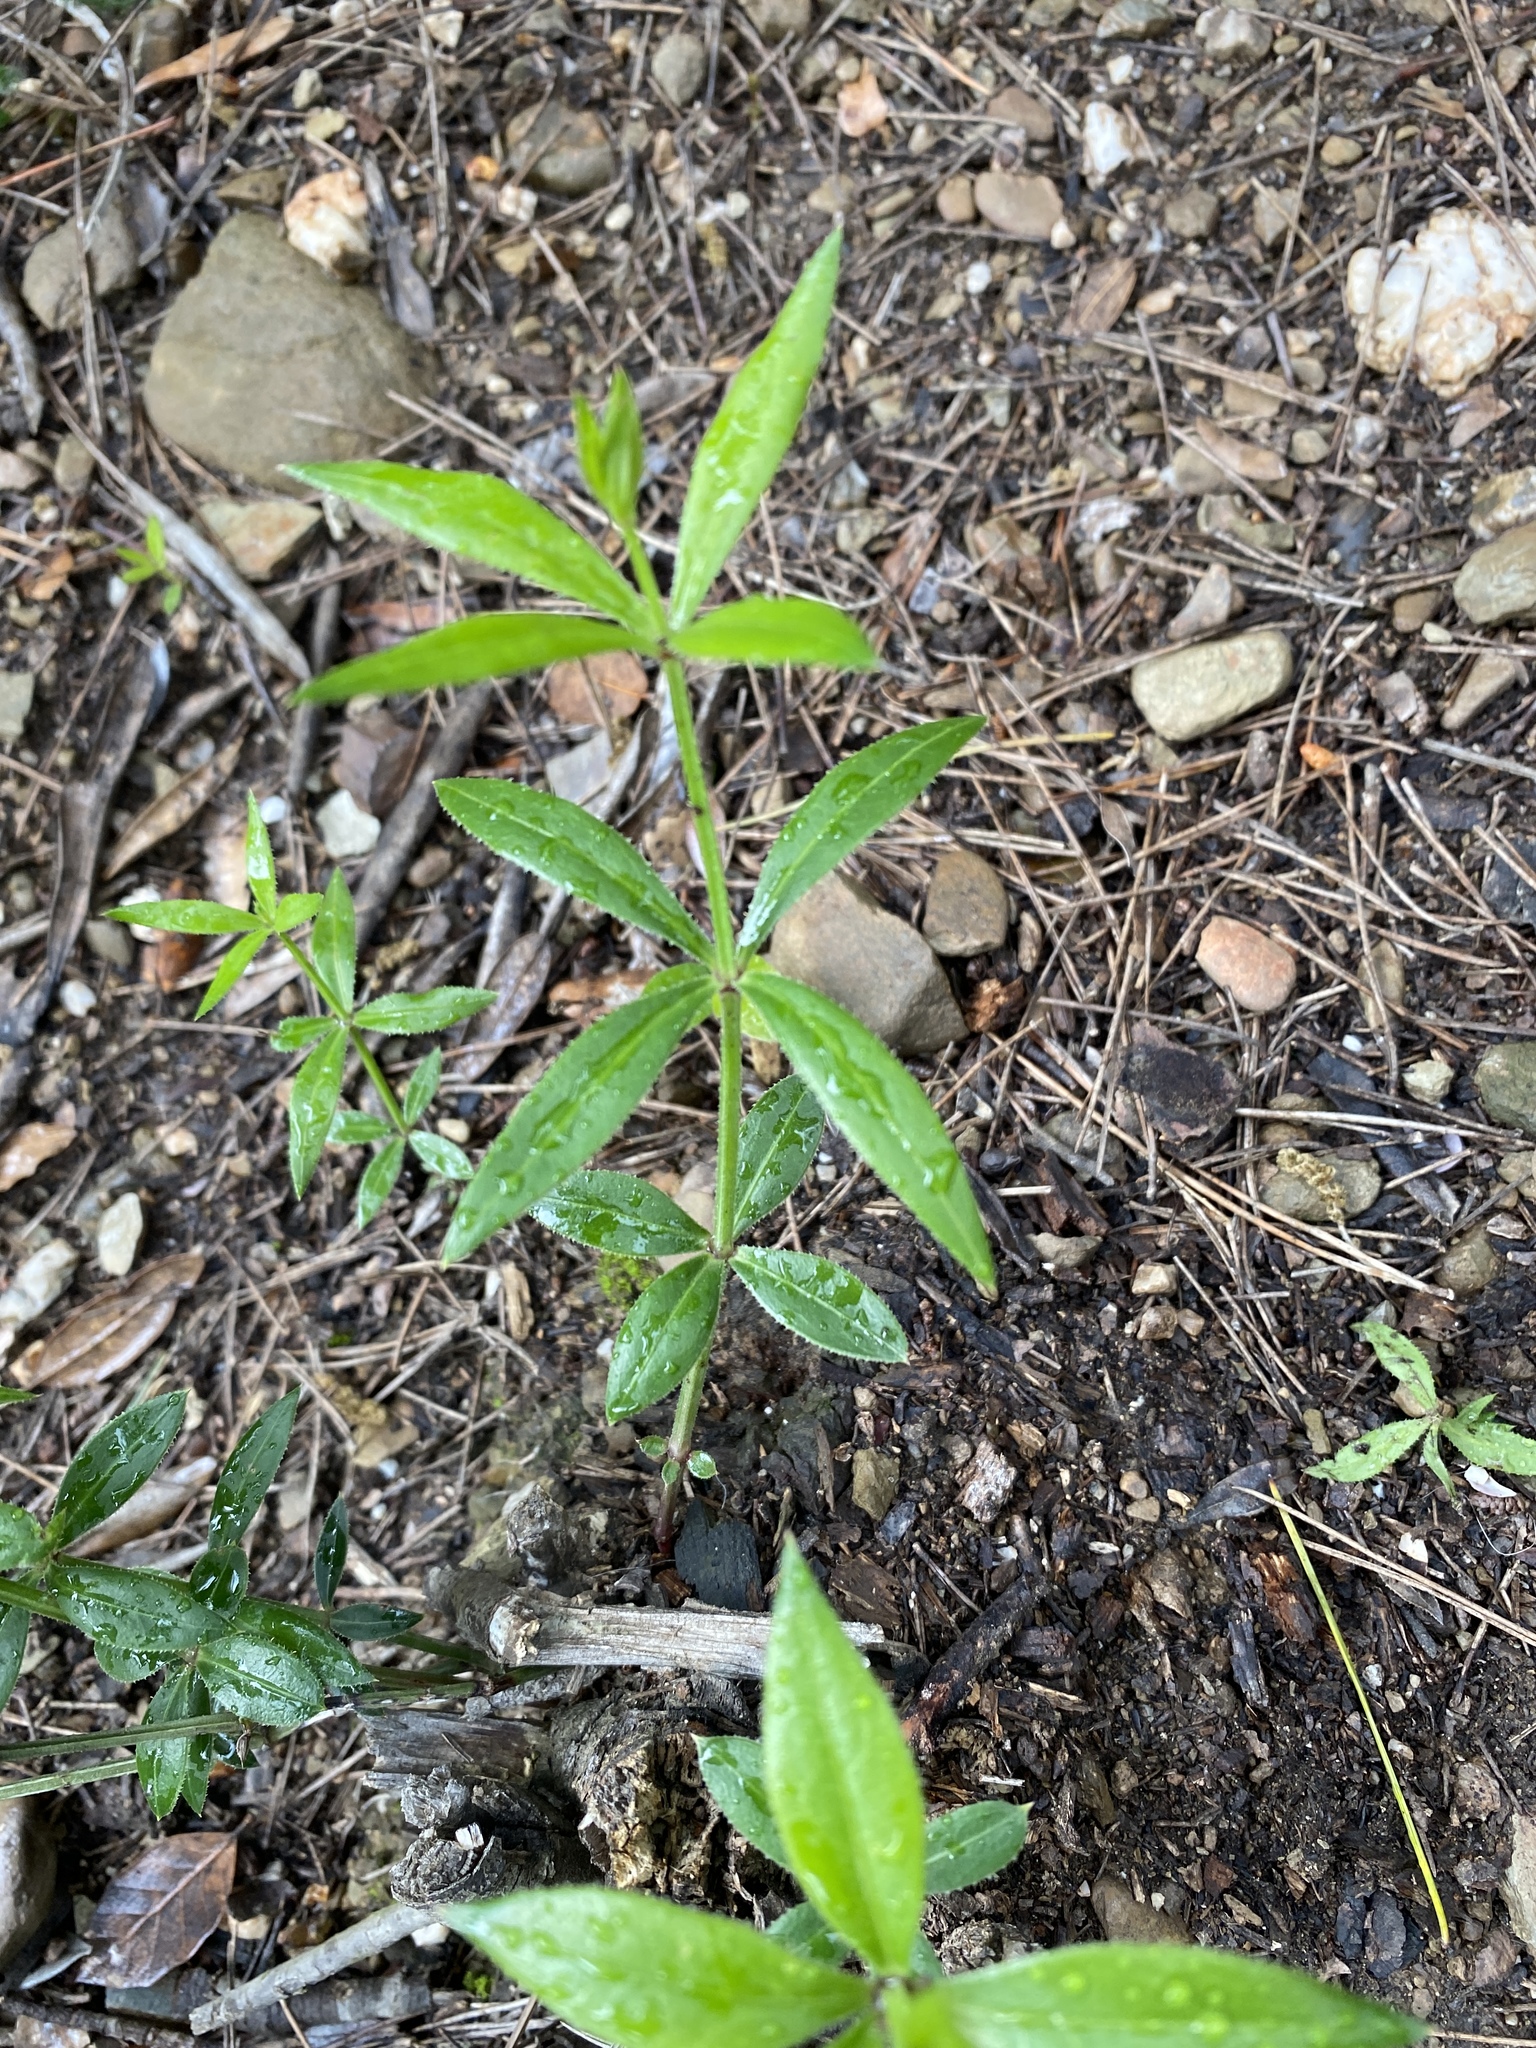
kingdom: Plantae
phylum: Tracheophyta
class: Magnoliopsida
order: Gentianales
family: Rubiaceae
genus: Rubia
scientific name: Rubia peregrina
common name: Wild madder
